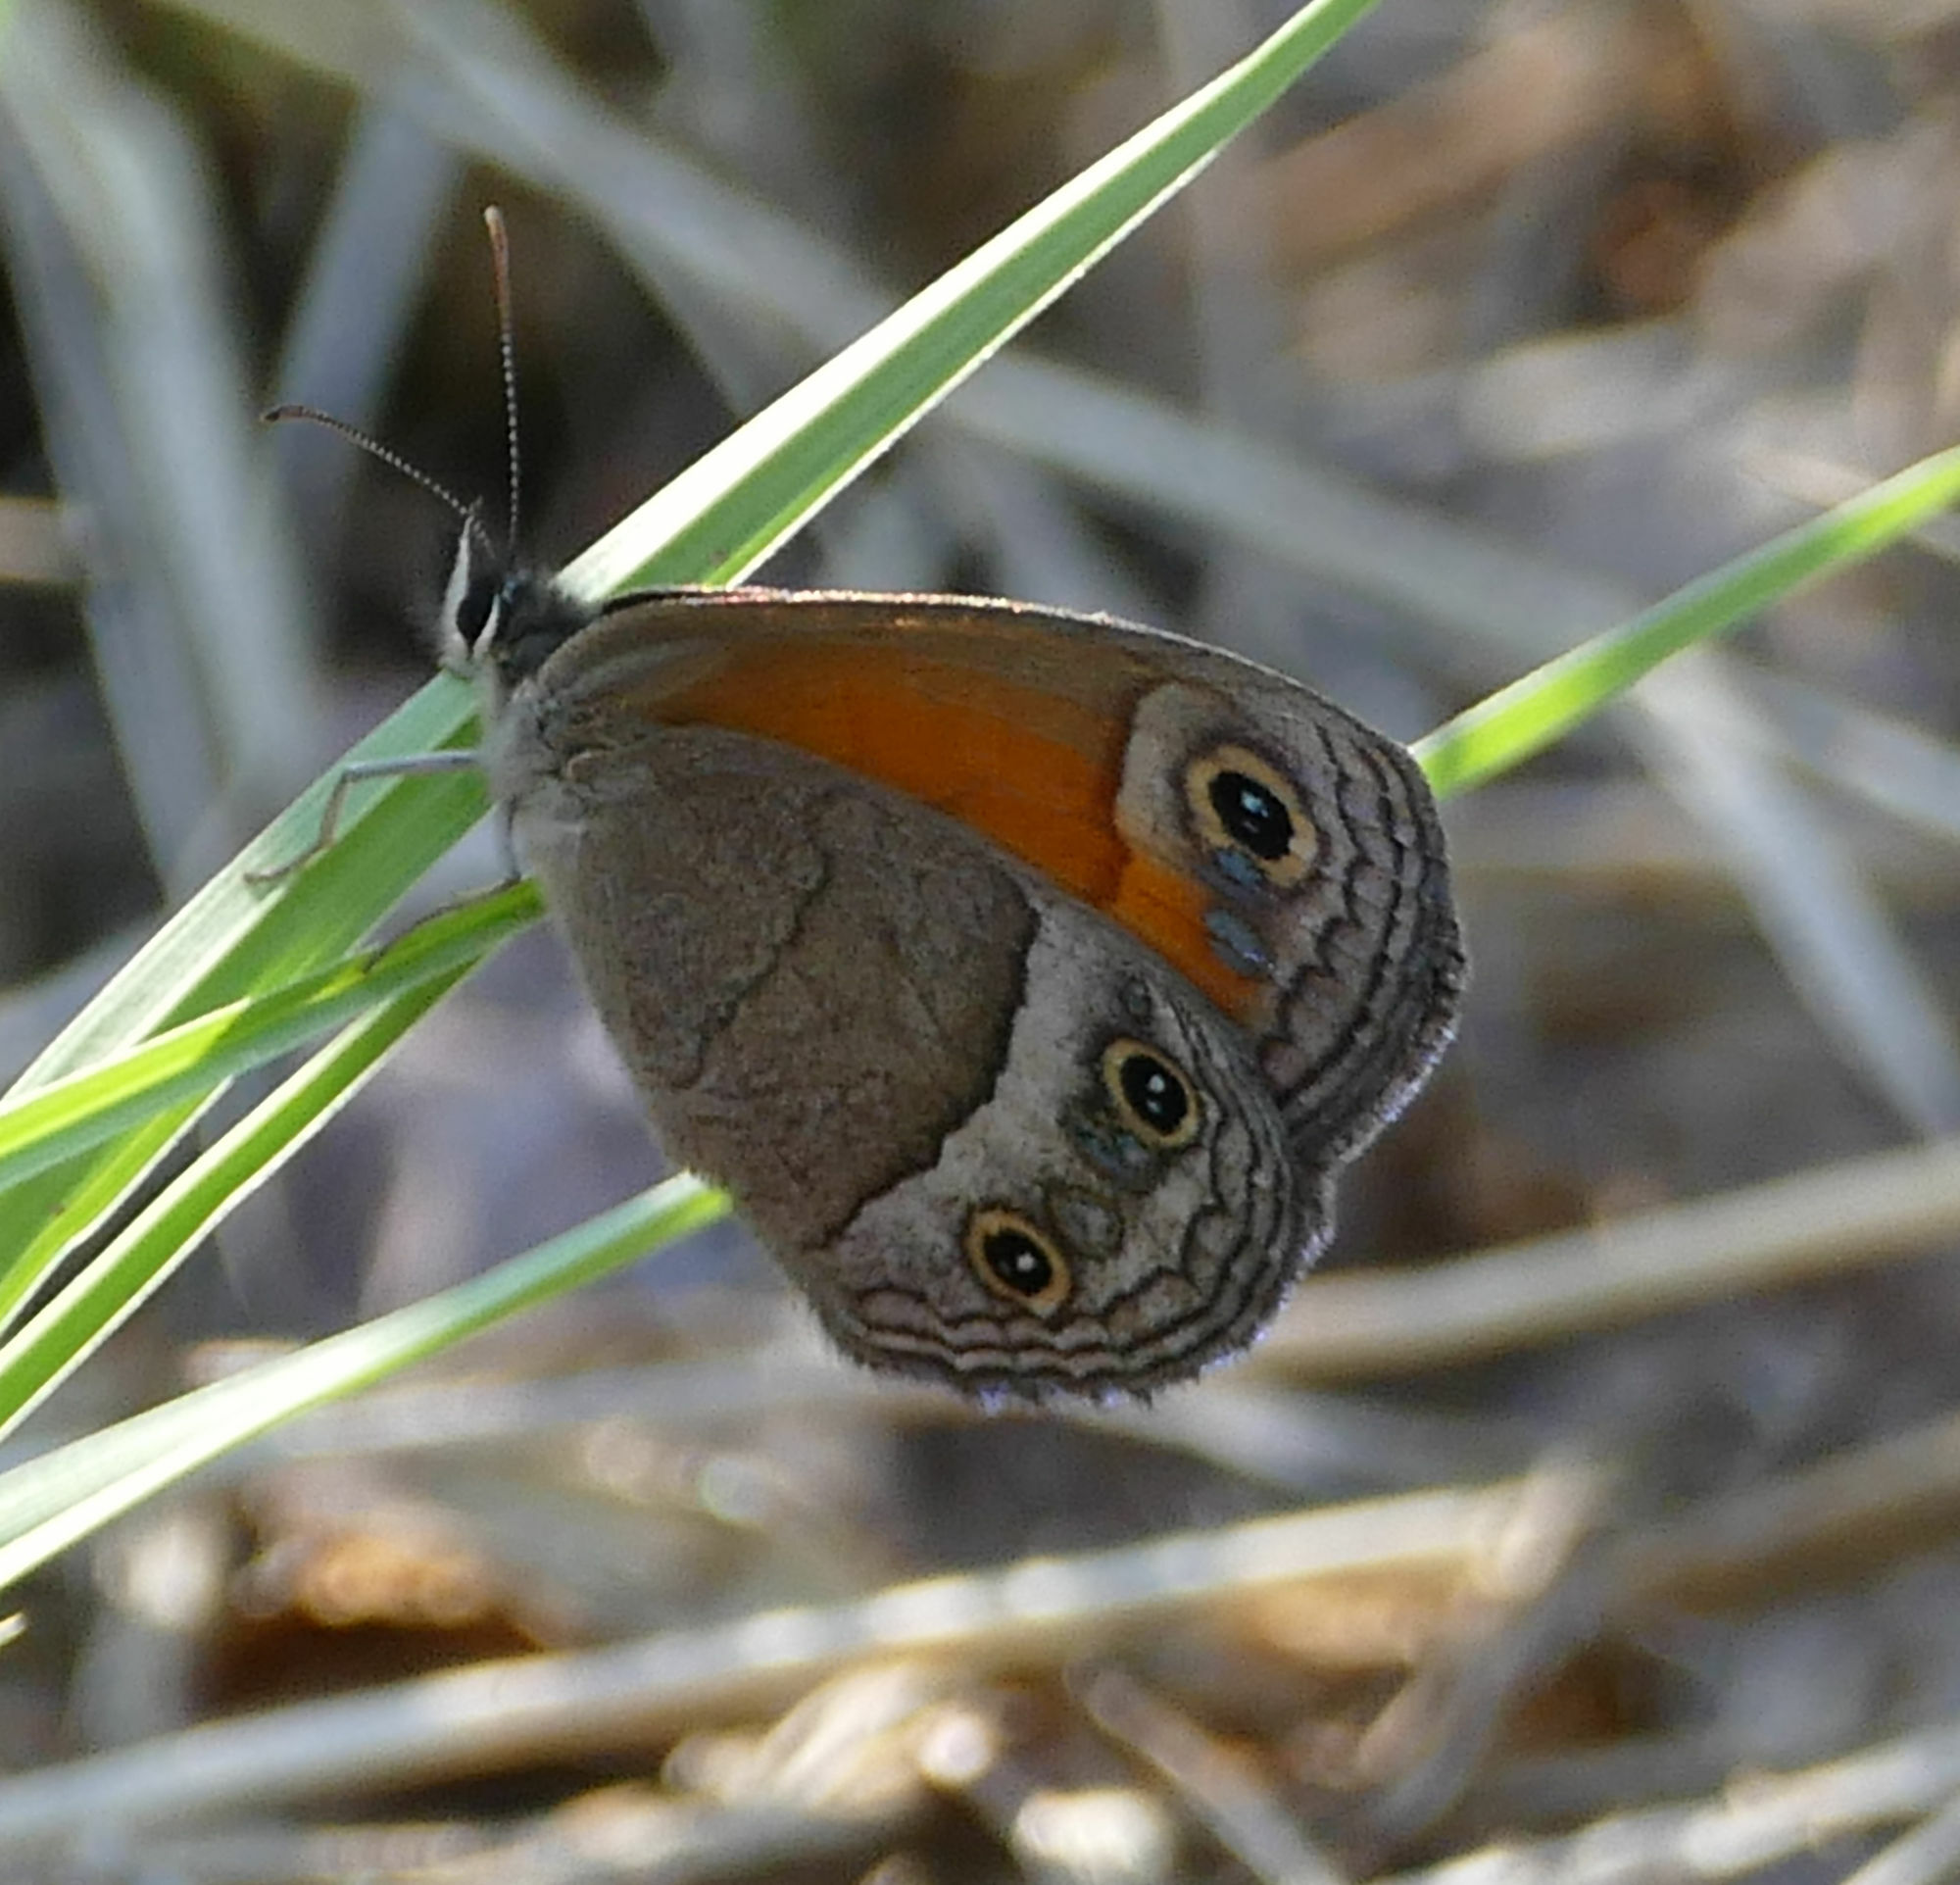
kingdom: Animalia
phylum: Arthropoda
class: Insecta
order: Lepidoptera
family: Nymphalidae
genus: Euptychia
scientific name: Euptychia Cissia rubricata
